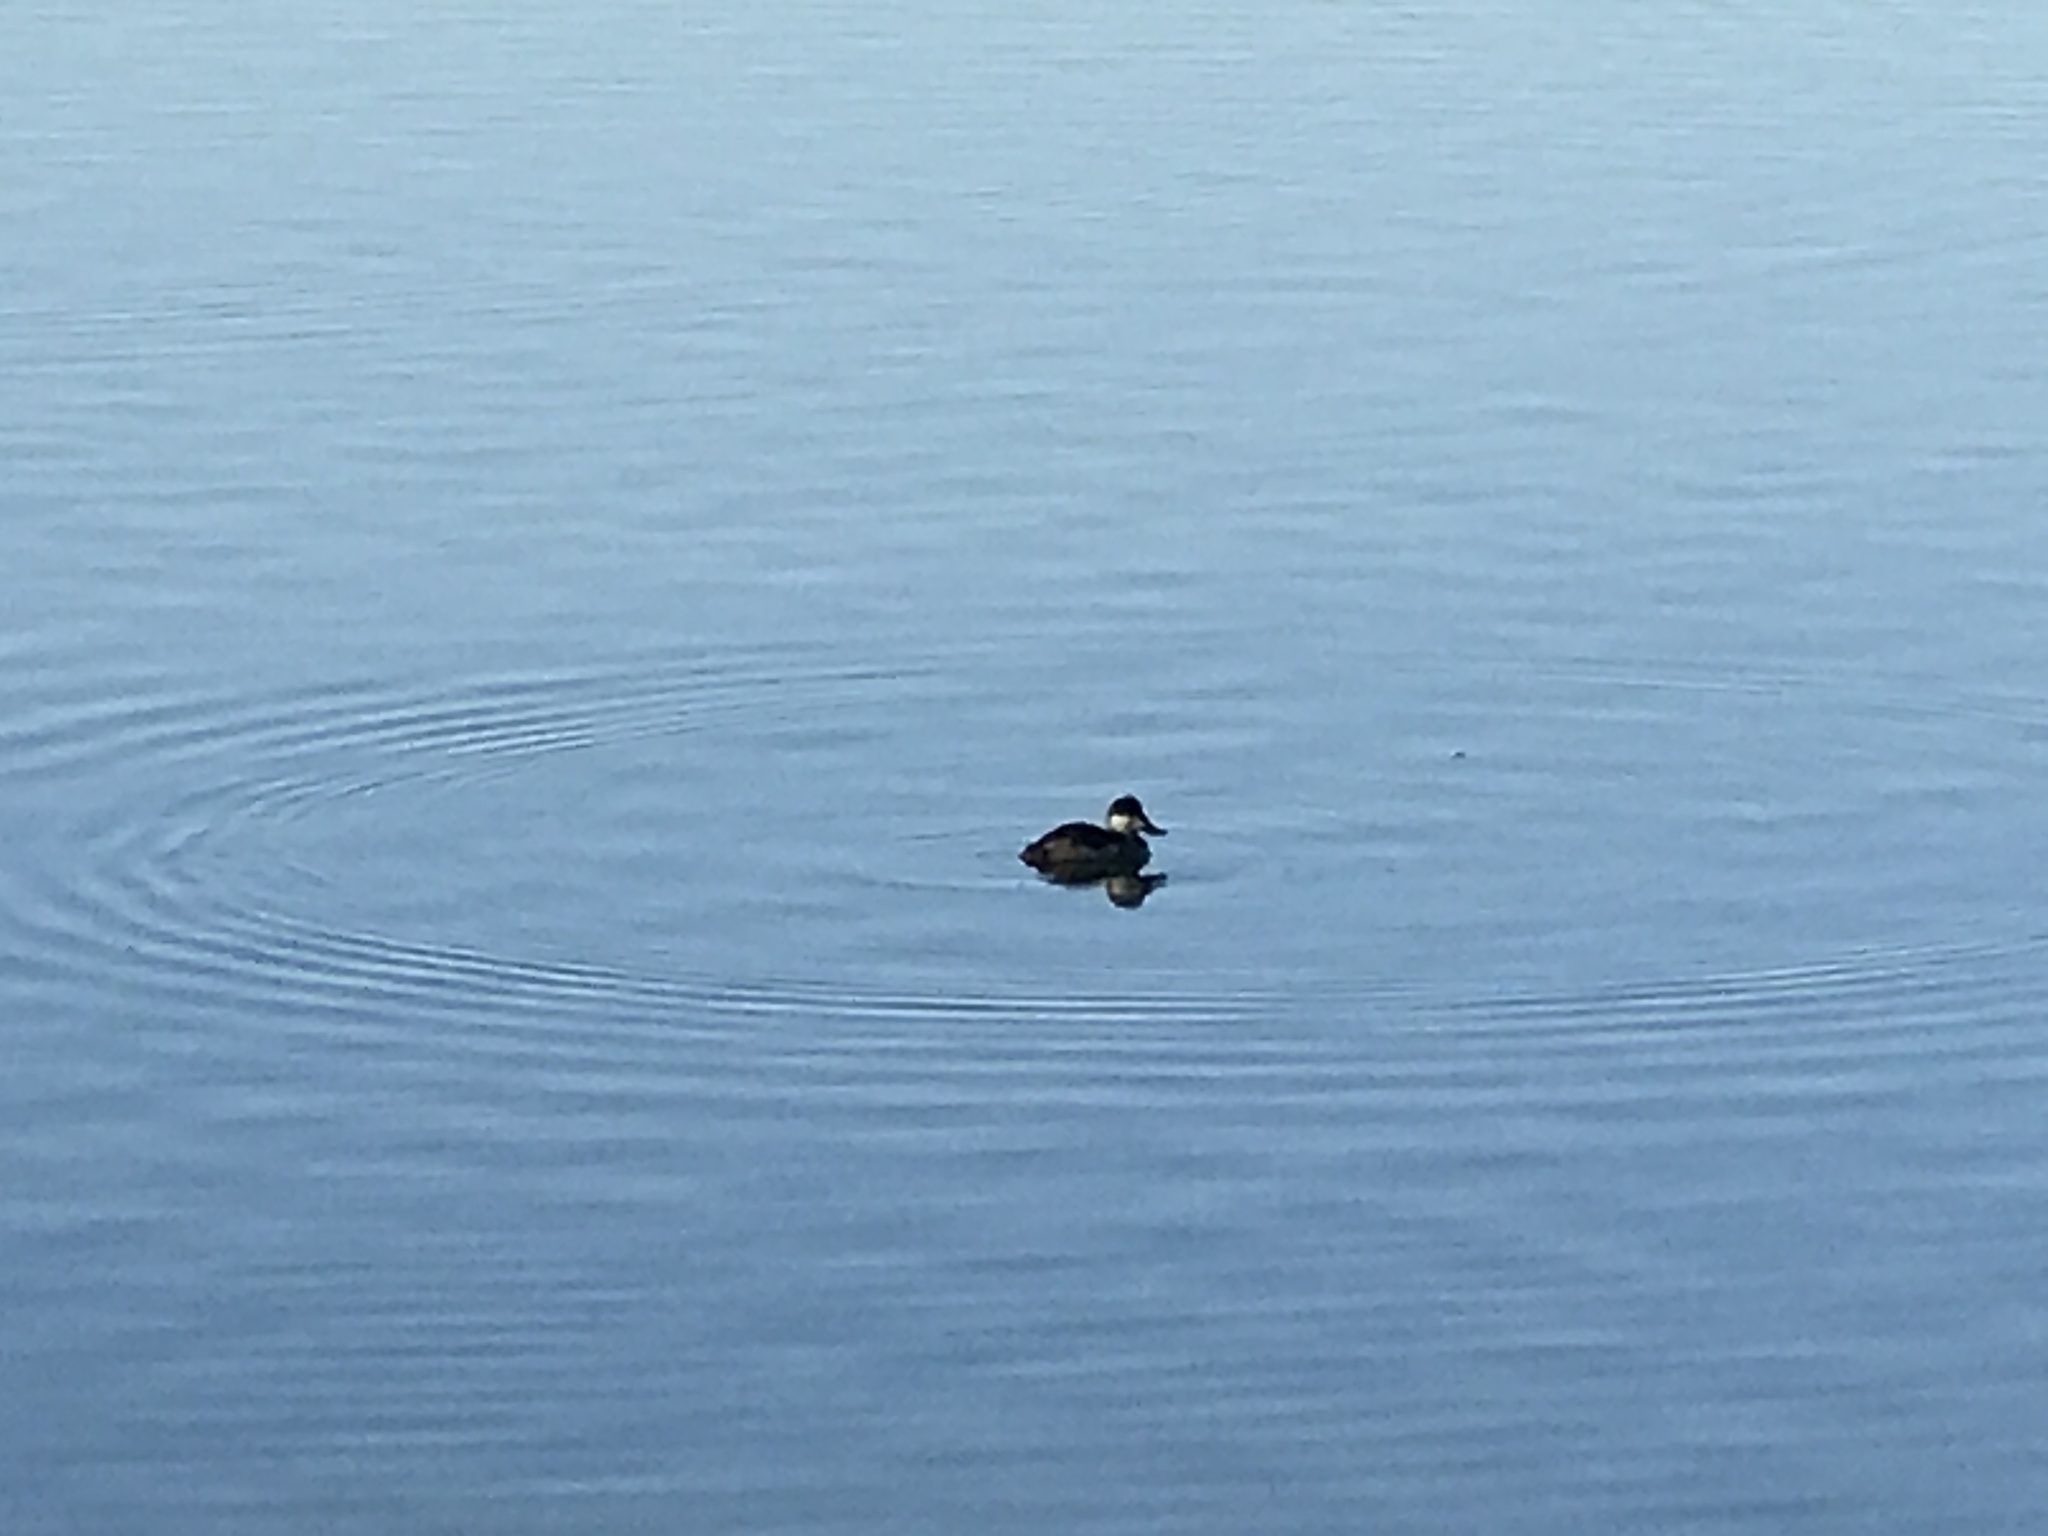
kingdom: Animalia
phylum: Chordata
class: Aves
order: Anseriformes
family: Anatidae
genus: Oxyura
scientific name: Oxyura jamaicensis
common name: Ruddy duck
